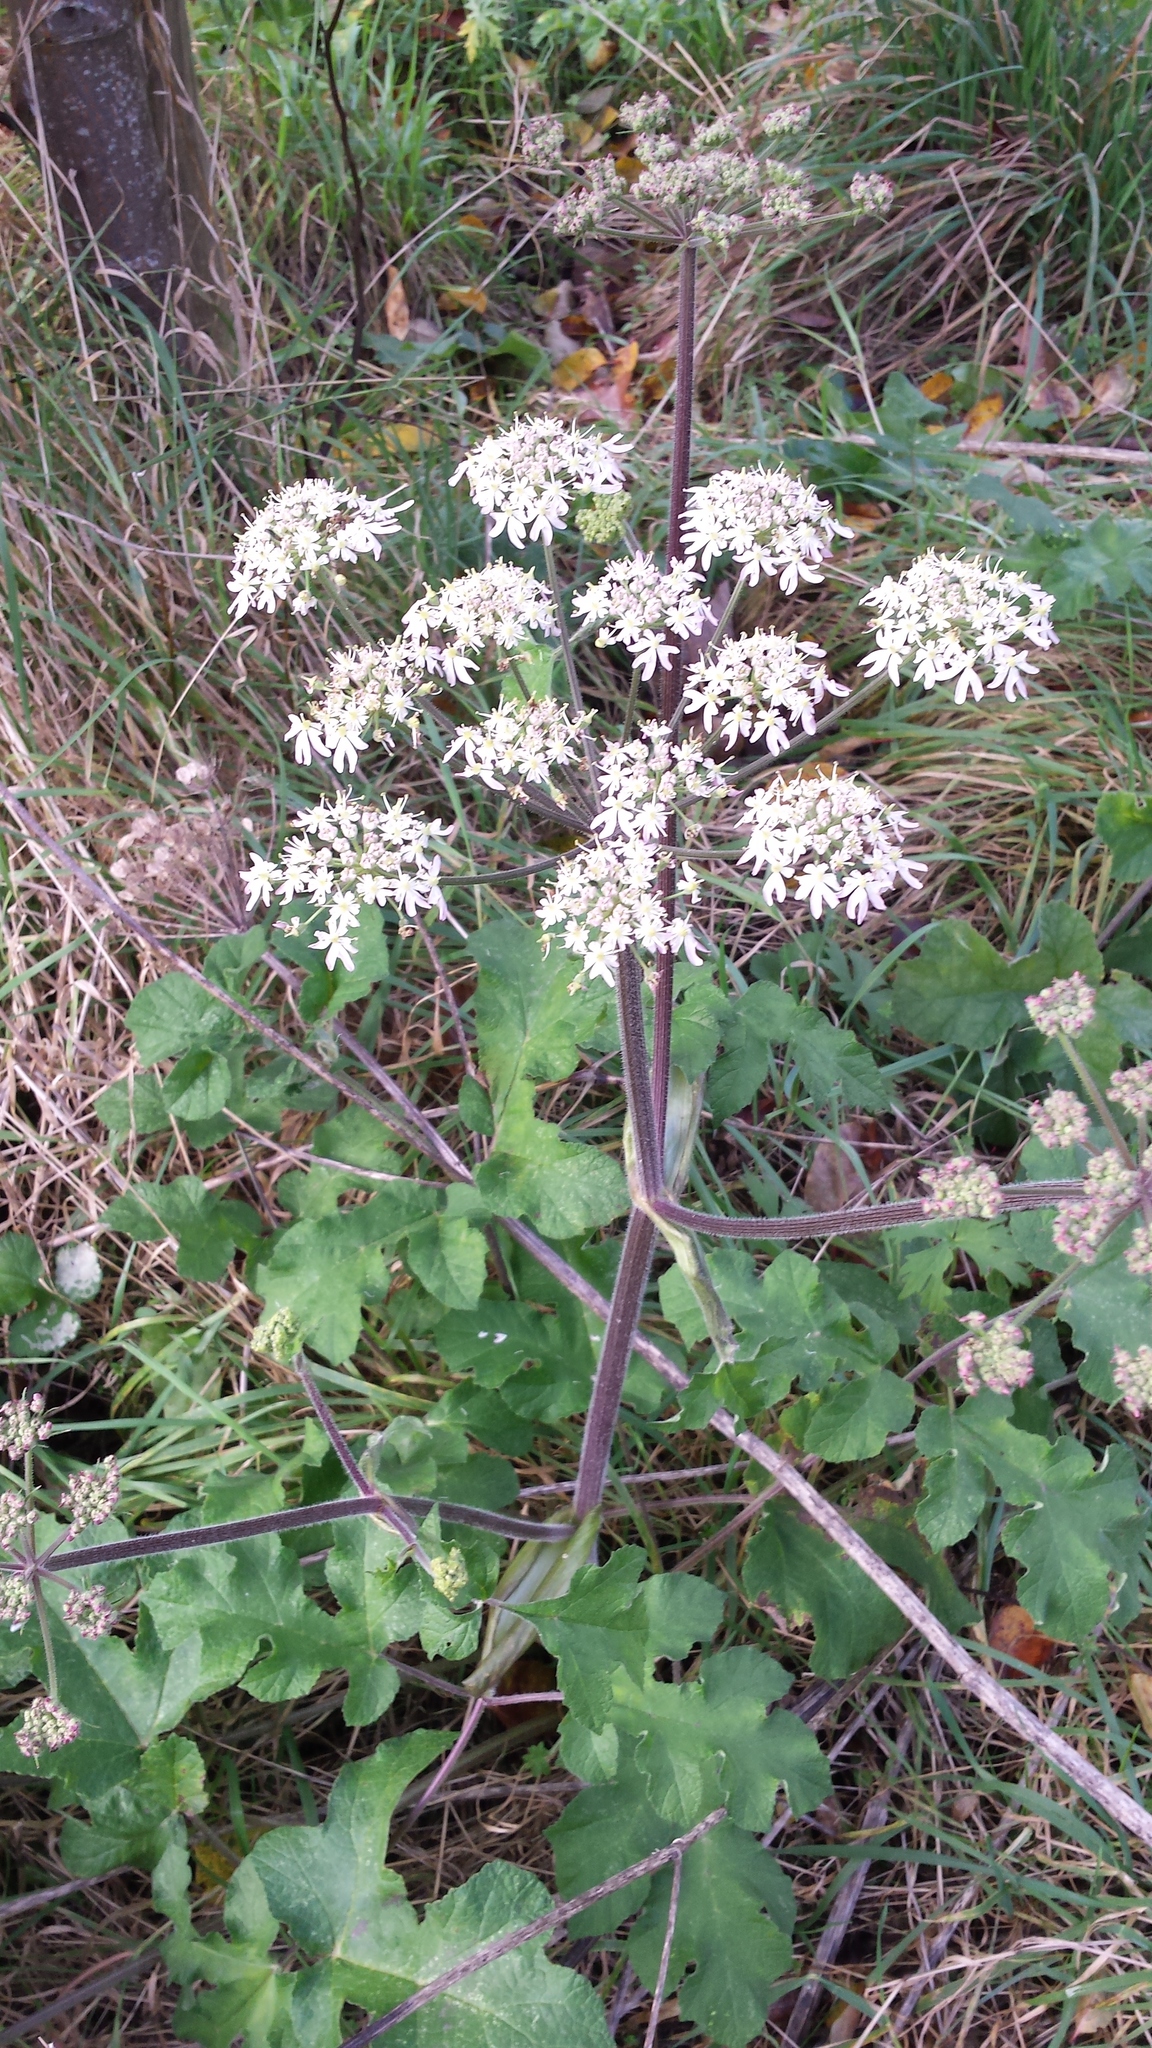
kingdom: Plantae
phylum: Tracheophyta
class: Magnoliopsida
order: Apiales
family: Apiaceae
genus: Heracleum
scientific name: Heracleum sphondylium
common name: Hogweed
